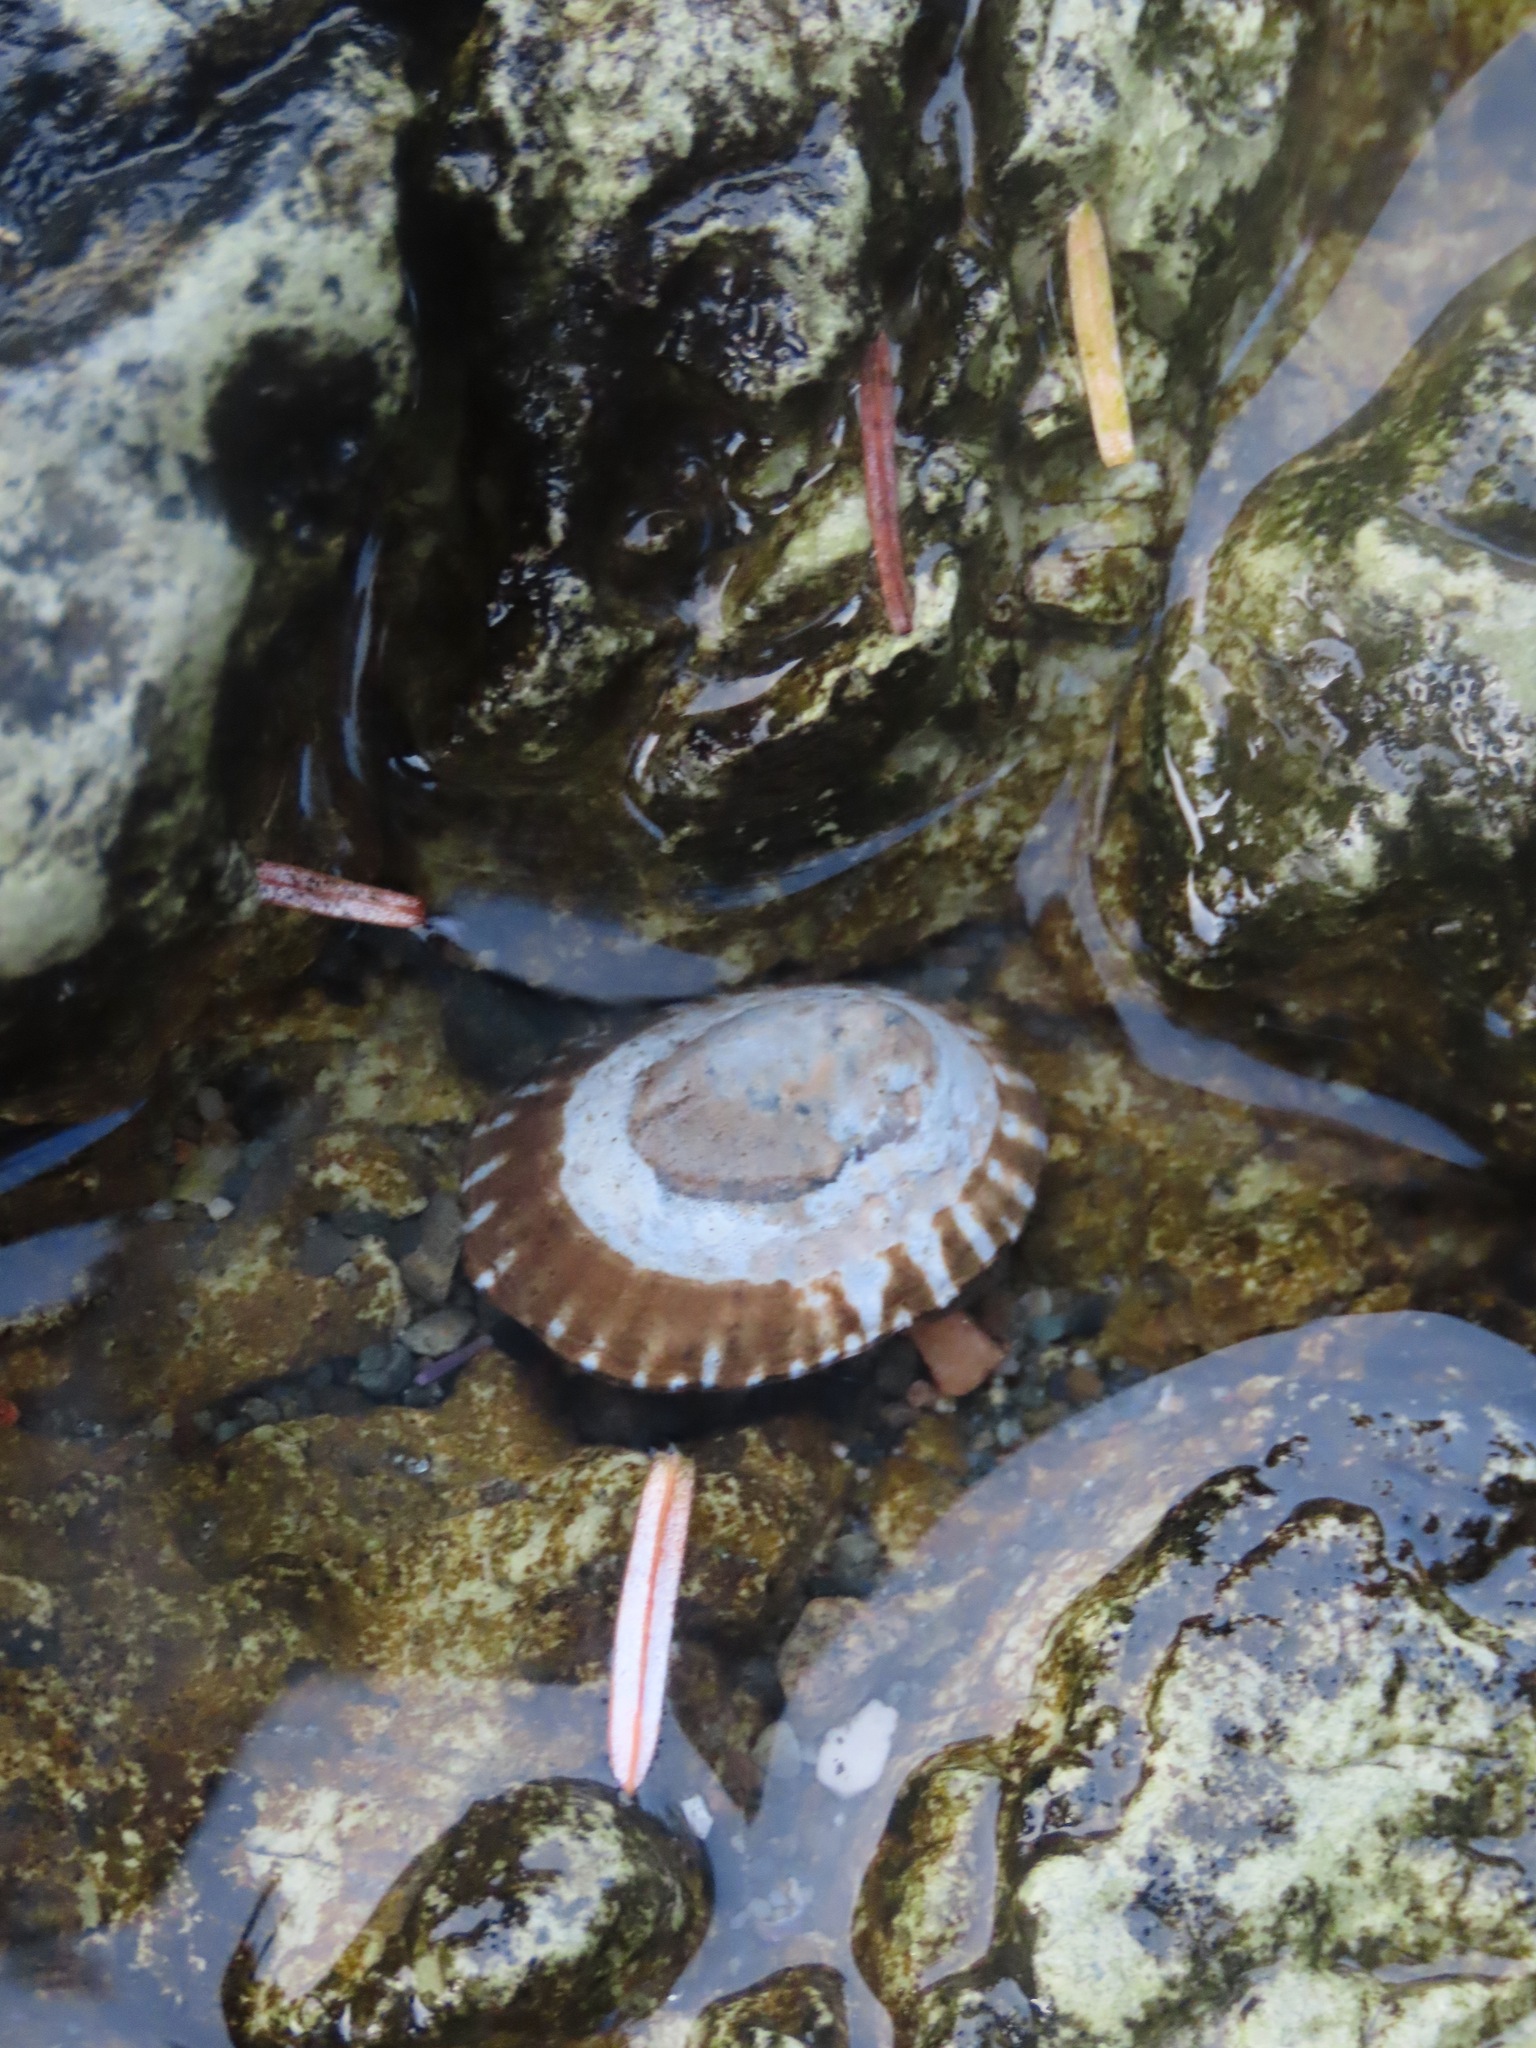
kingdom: Animalia
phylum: Mollusca
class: Gastropoda
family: Lottiidae
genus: Lottia
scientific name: Lottia scutum
